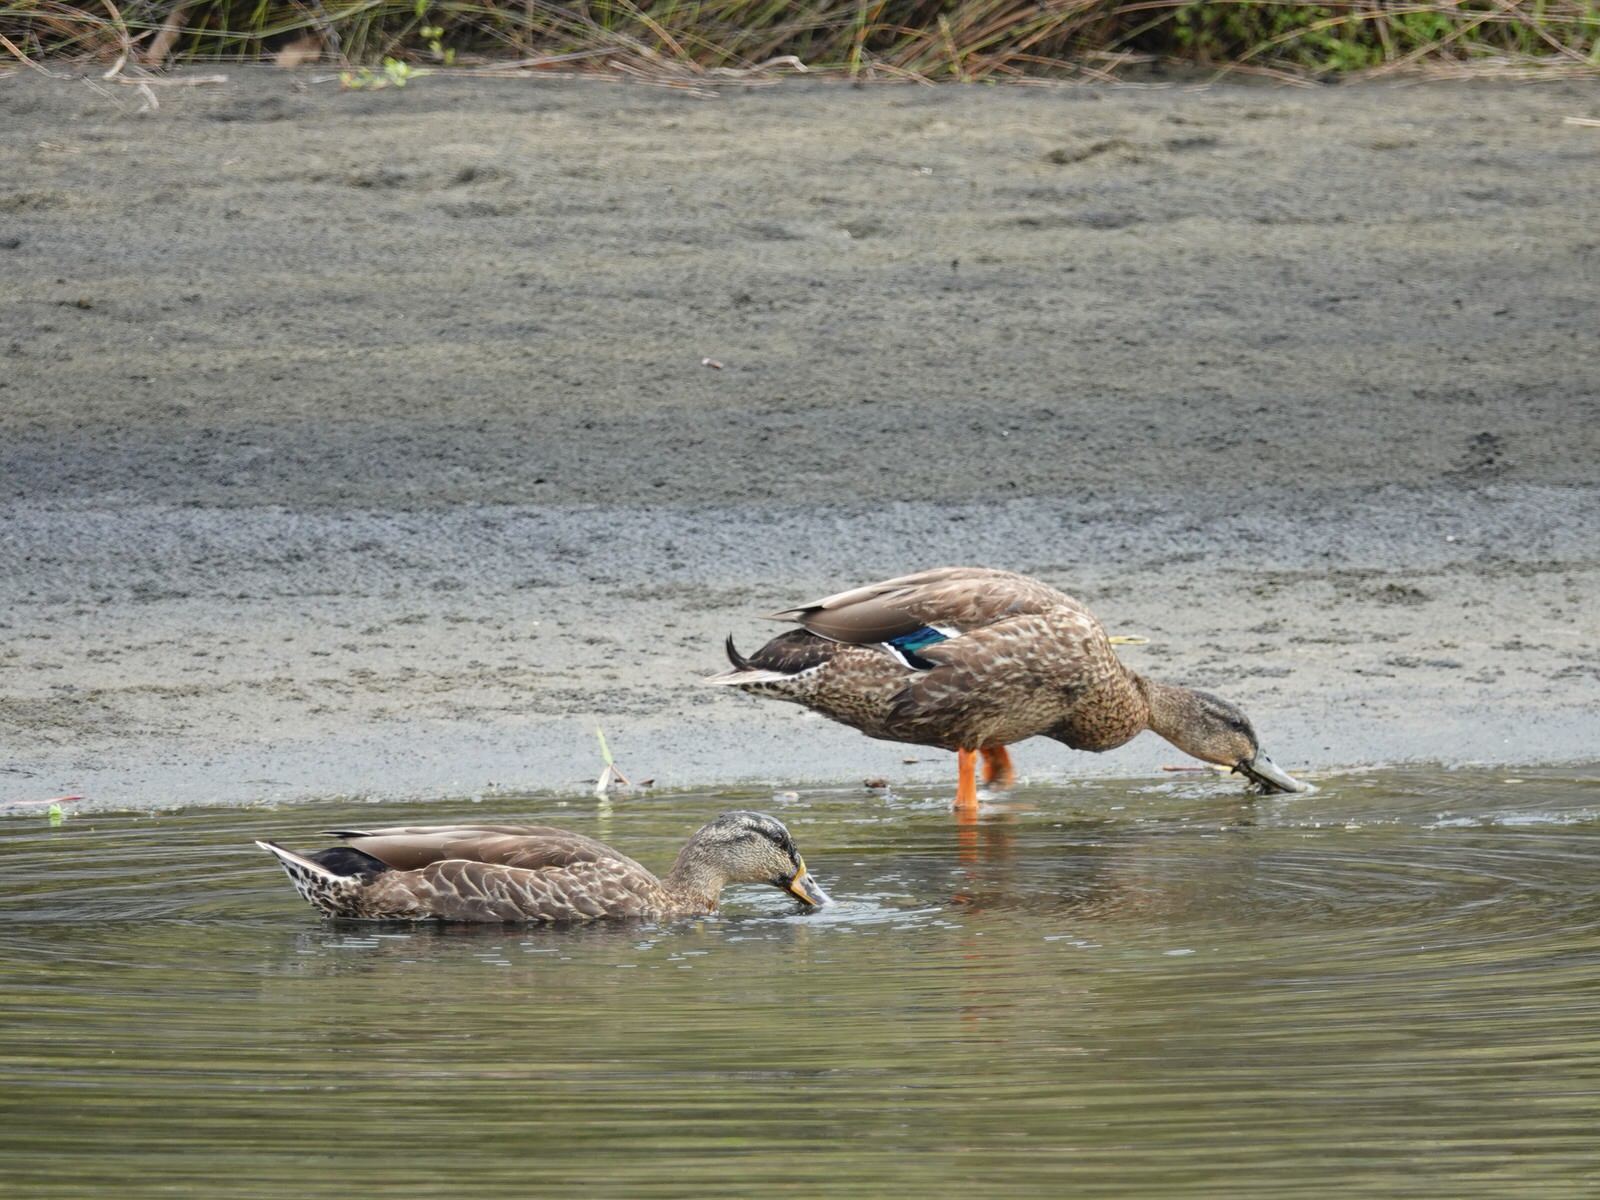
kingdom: Animalia
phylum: Chordata
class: Aves
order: Anseriformes
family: Anatidae
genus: Anas
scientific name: Anas
